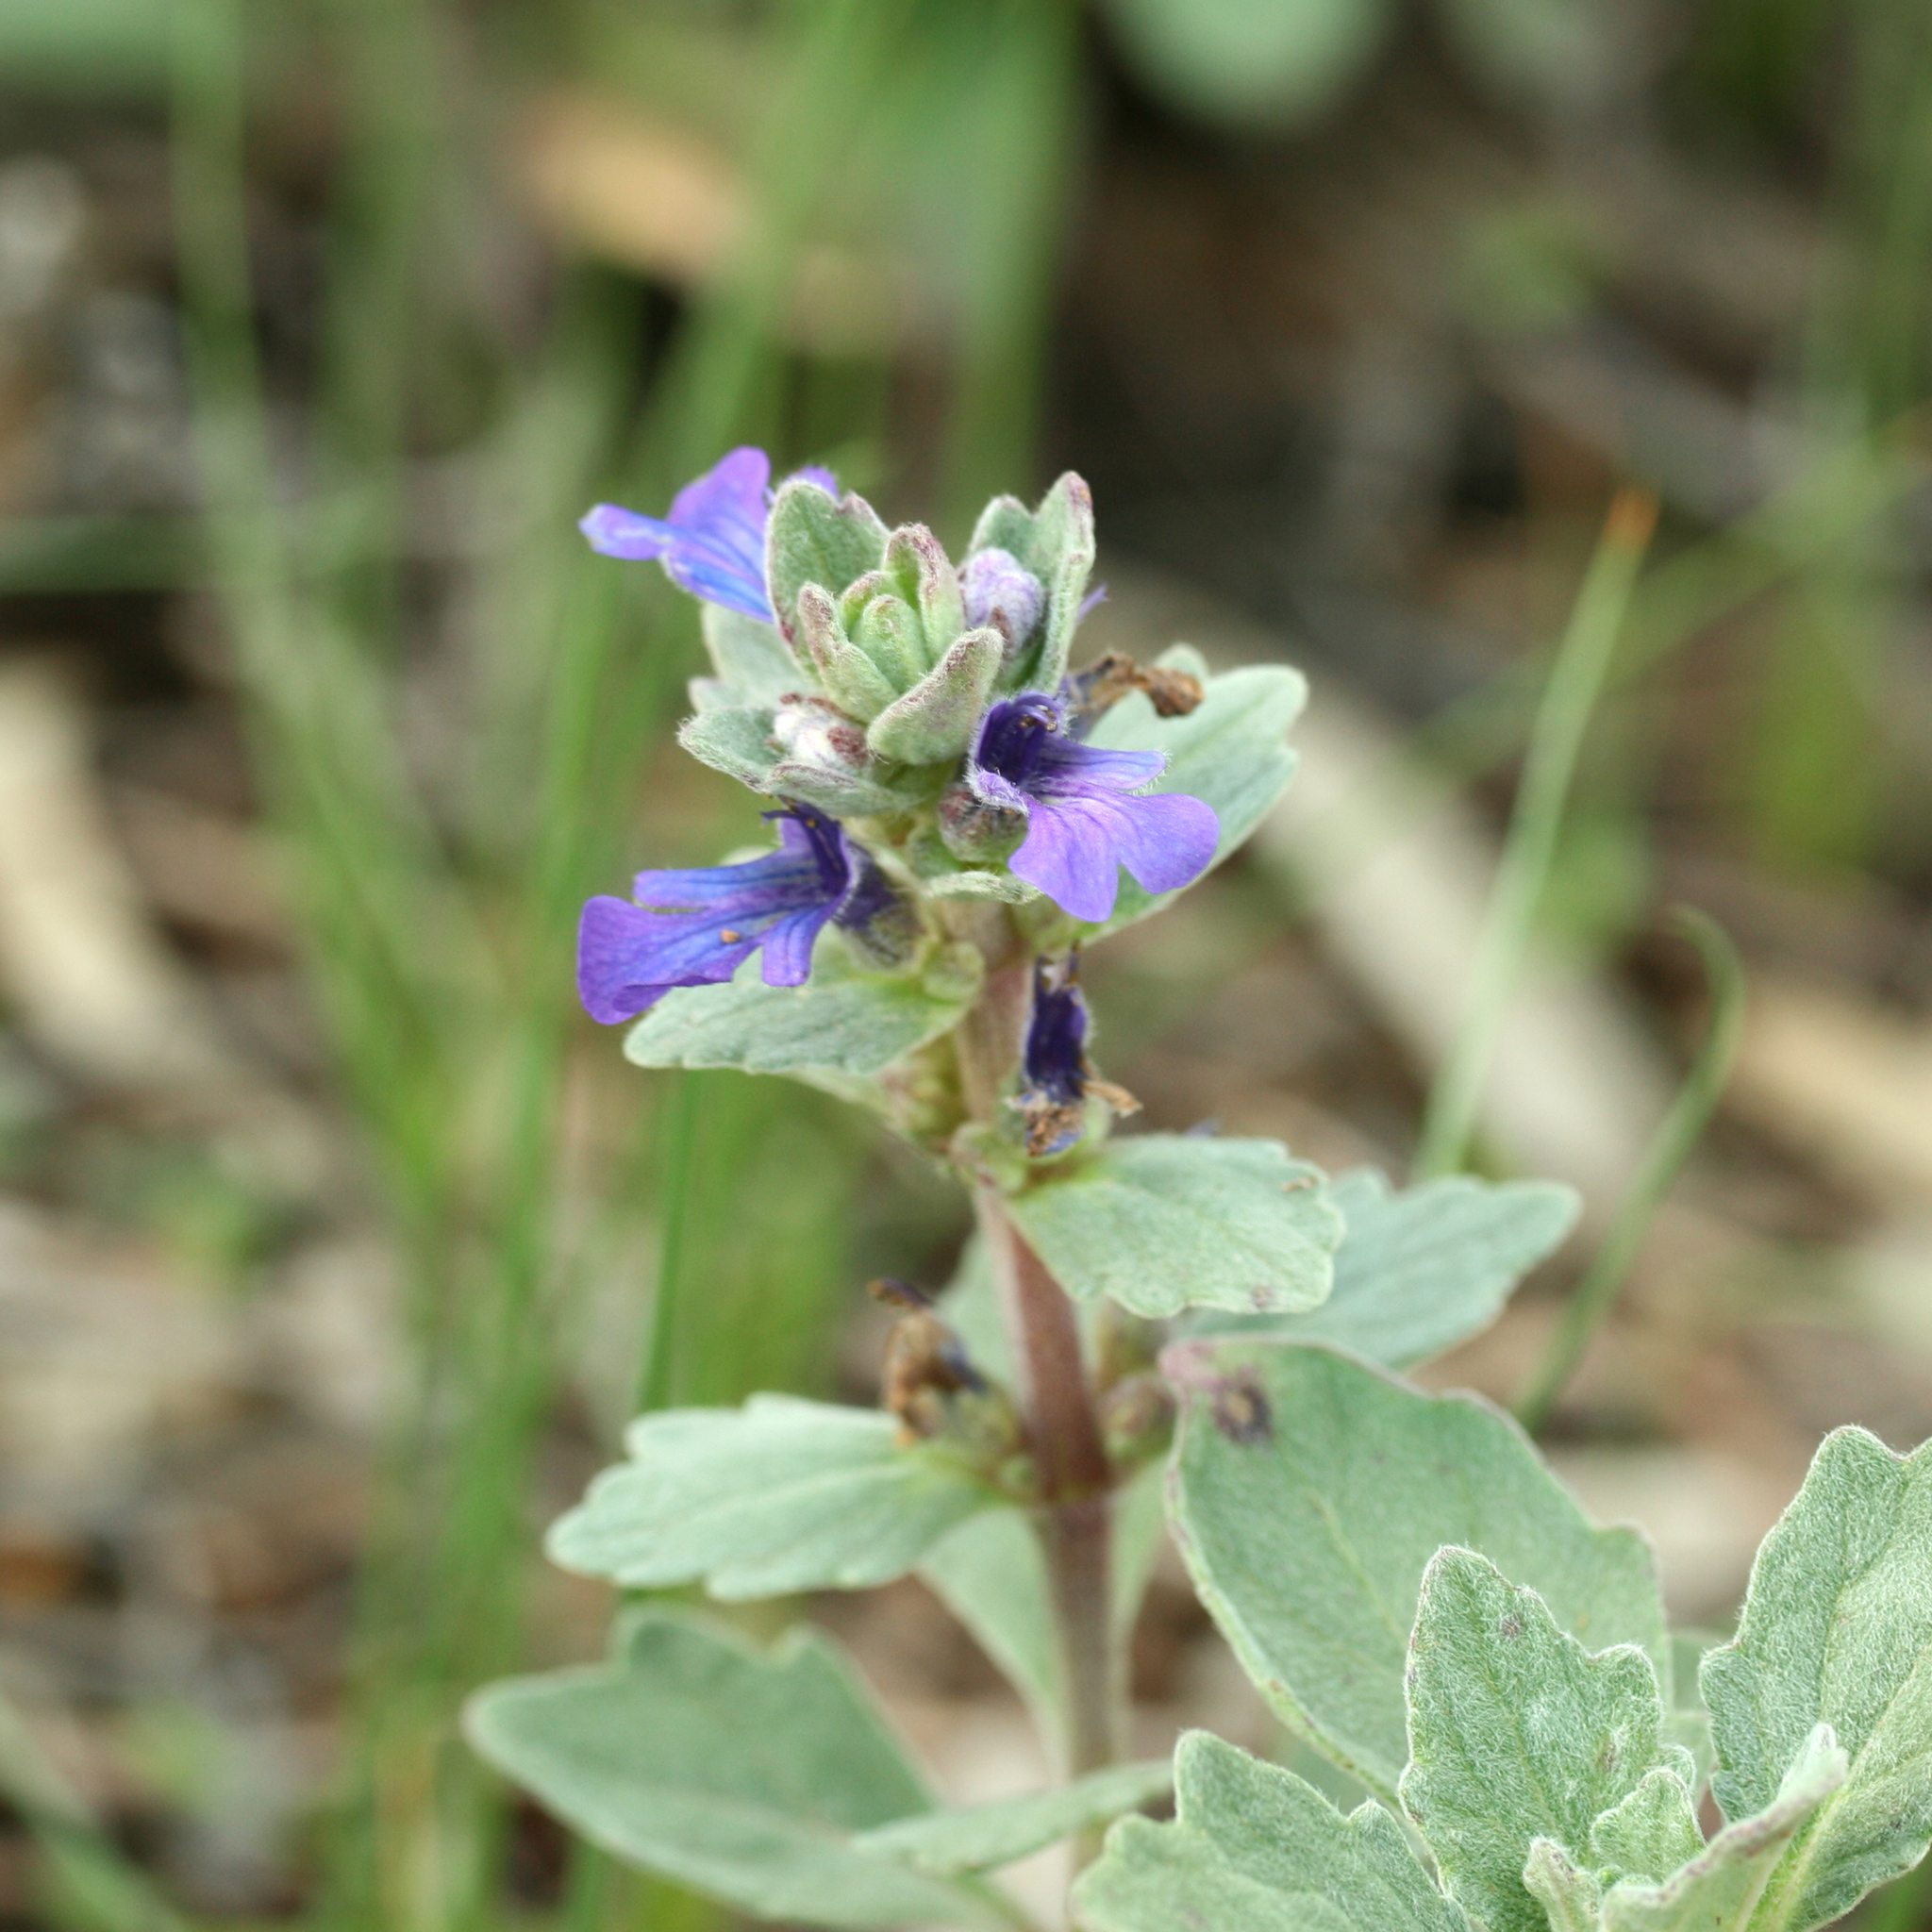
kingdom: Plantae
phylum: Tracheophyta
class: Magnoliopsida
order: Lamiales
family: Lamiaceae
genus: Ajuga
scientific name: Ajuga australis
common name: Australian bugle
